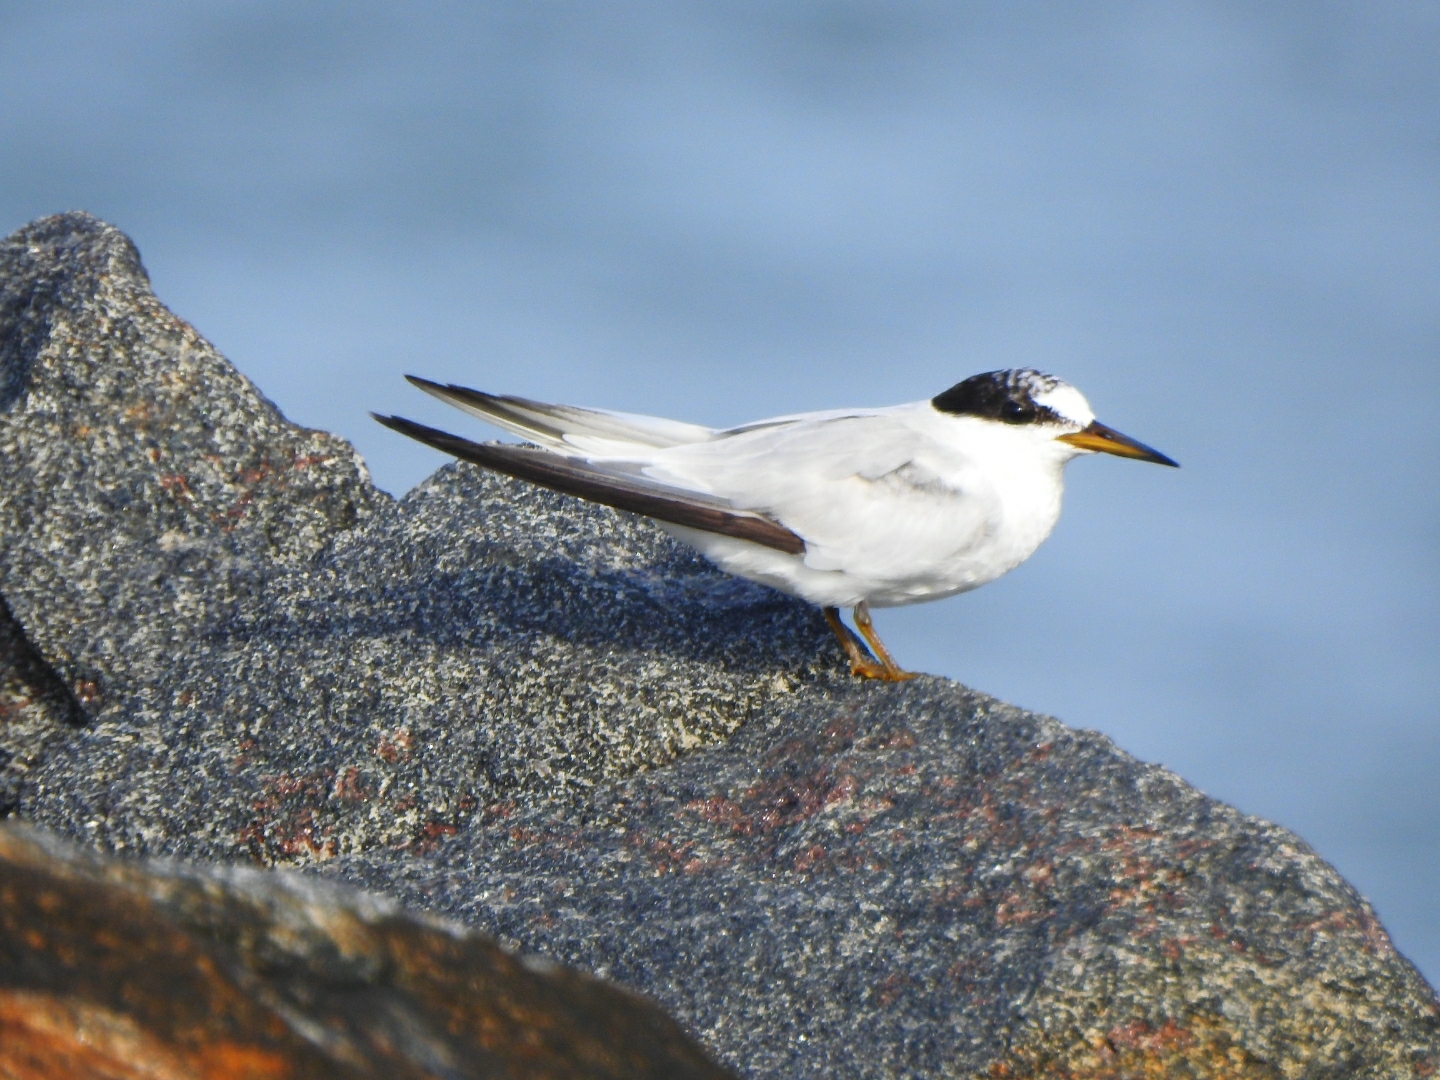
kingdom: Animalia
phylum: Chordata
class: Aves
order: Charadriiformes
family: Laridae
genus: Sternula
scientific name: Sternula saundersi
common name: Saunders's tern
